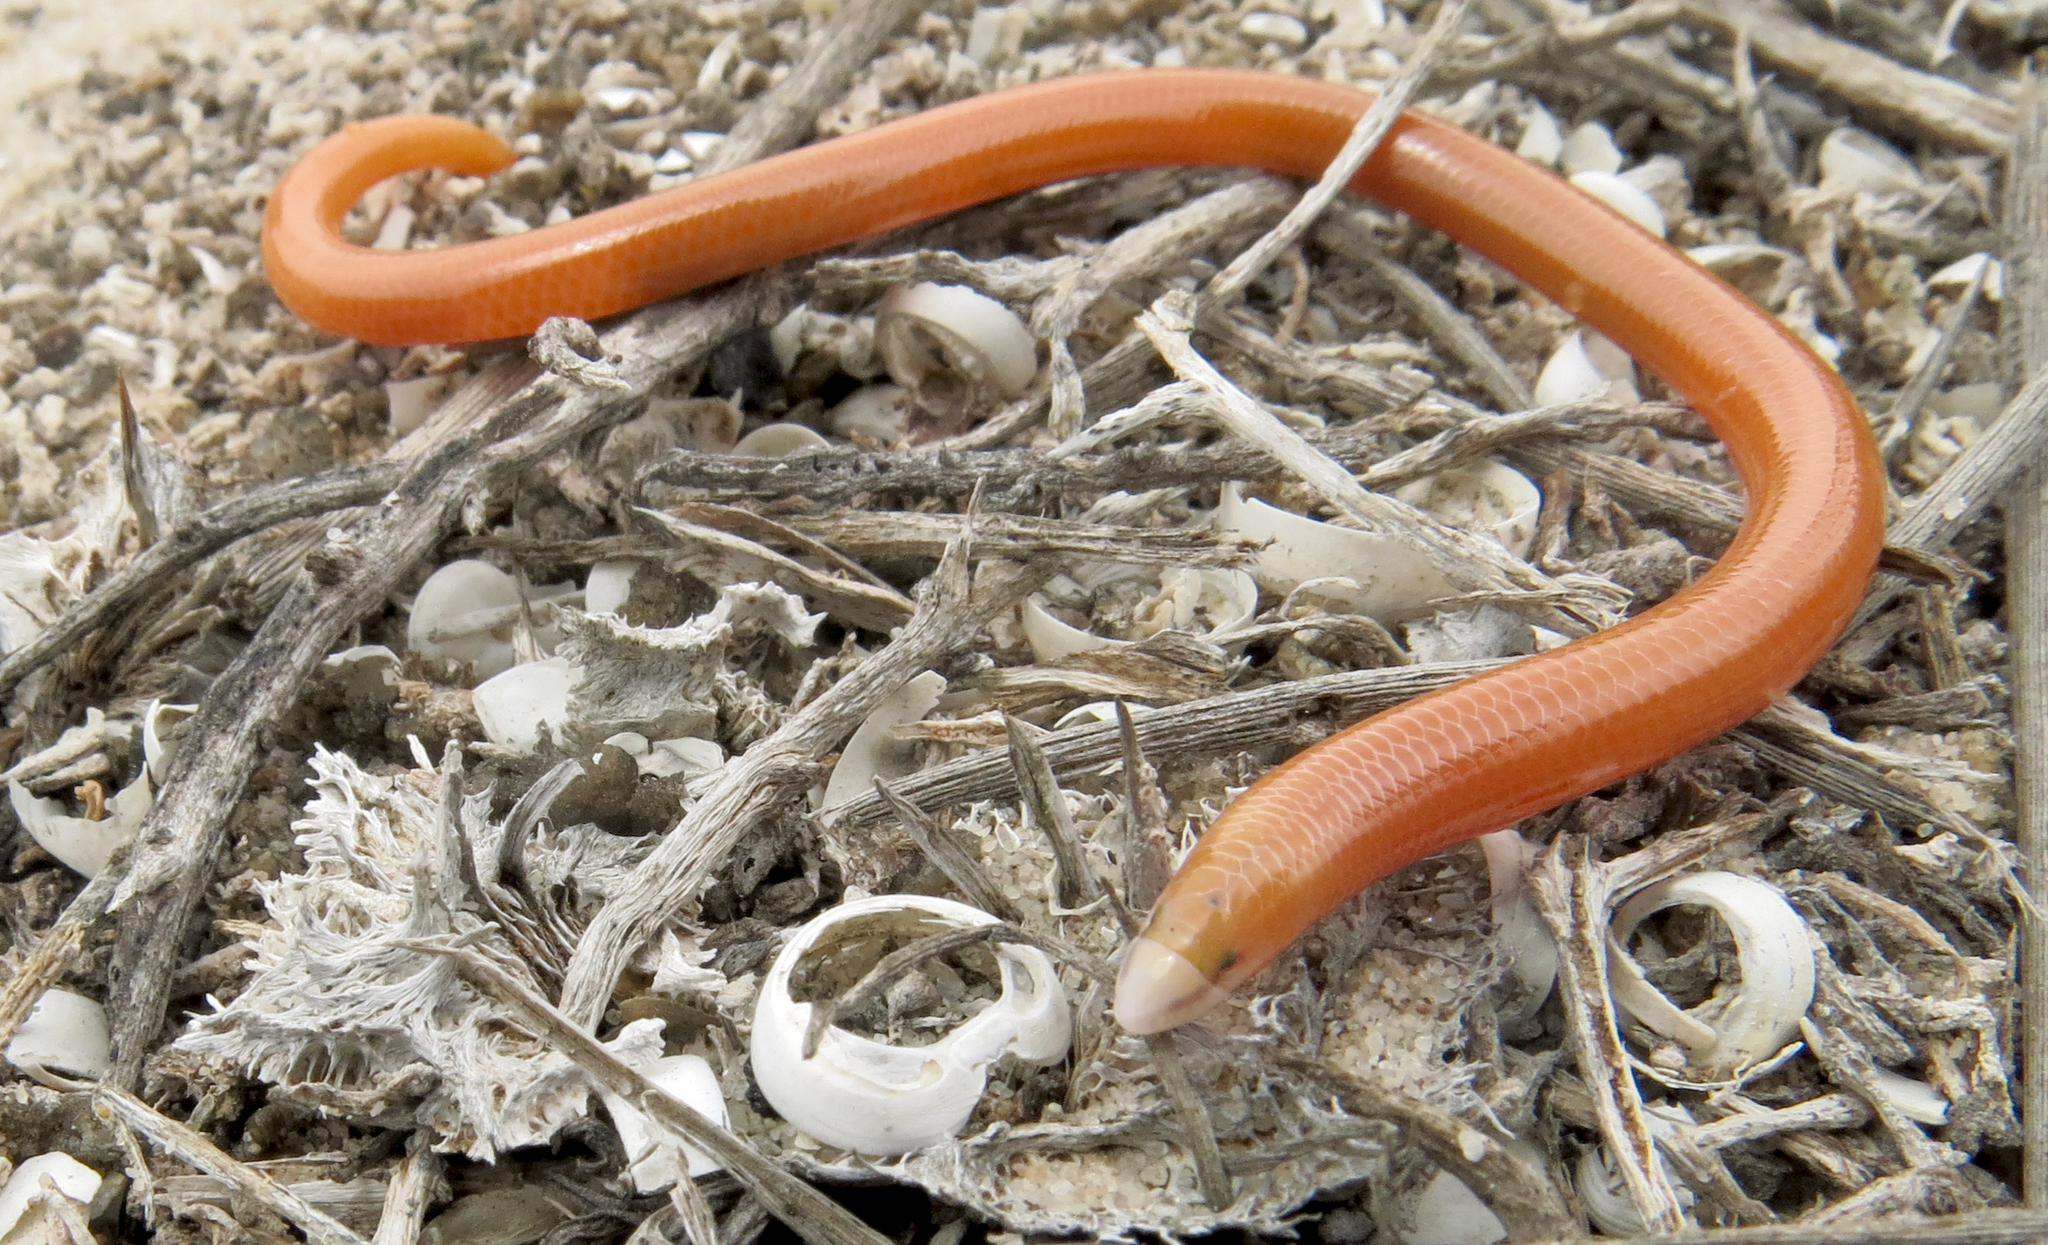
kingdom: Animalia
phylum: Chordata
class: Squamata
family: Scincidae
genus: Acontias
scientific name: Acontias lineatus
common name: Lined lance skink
